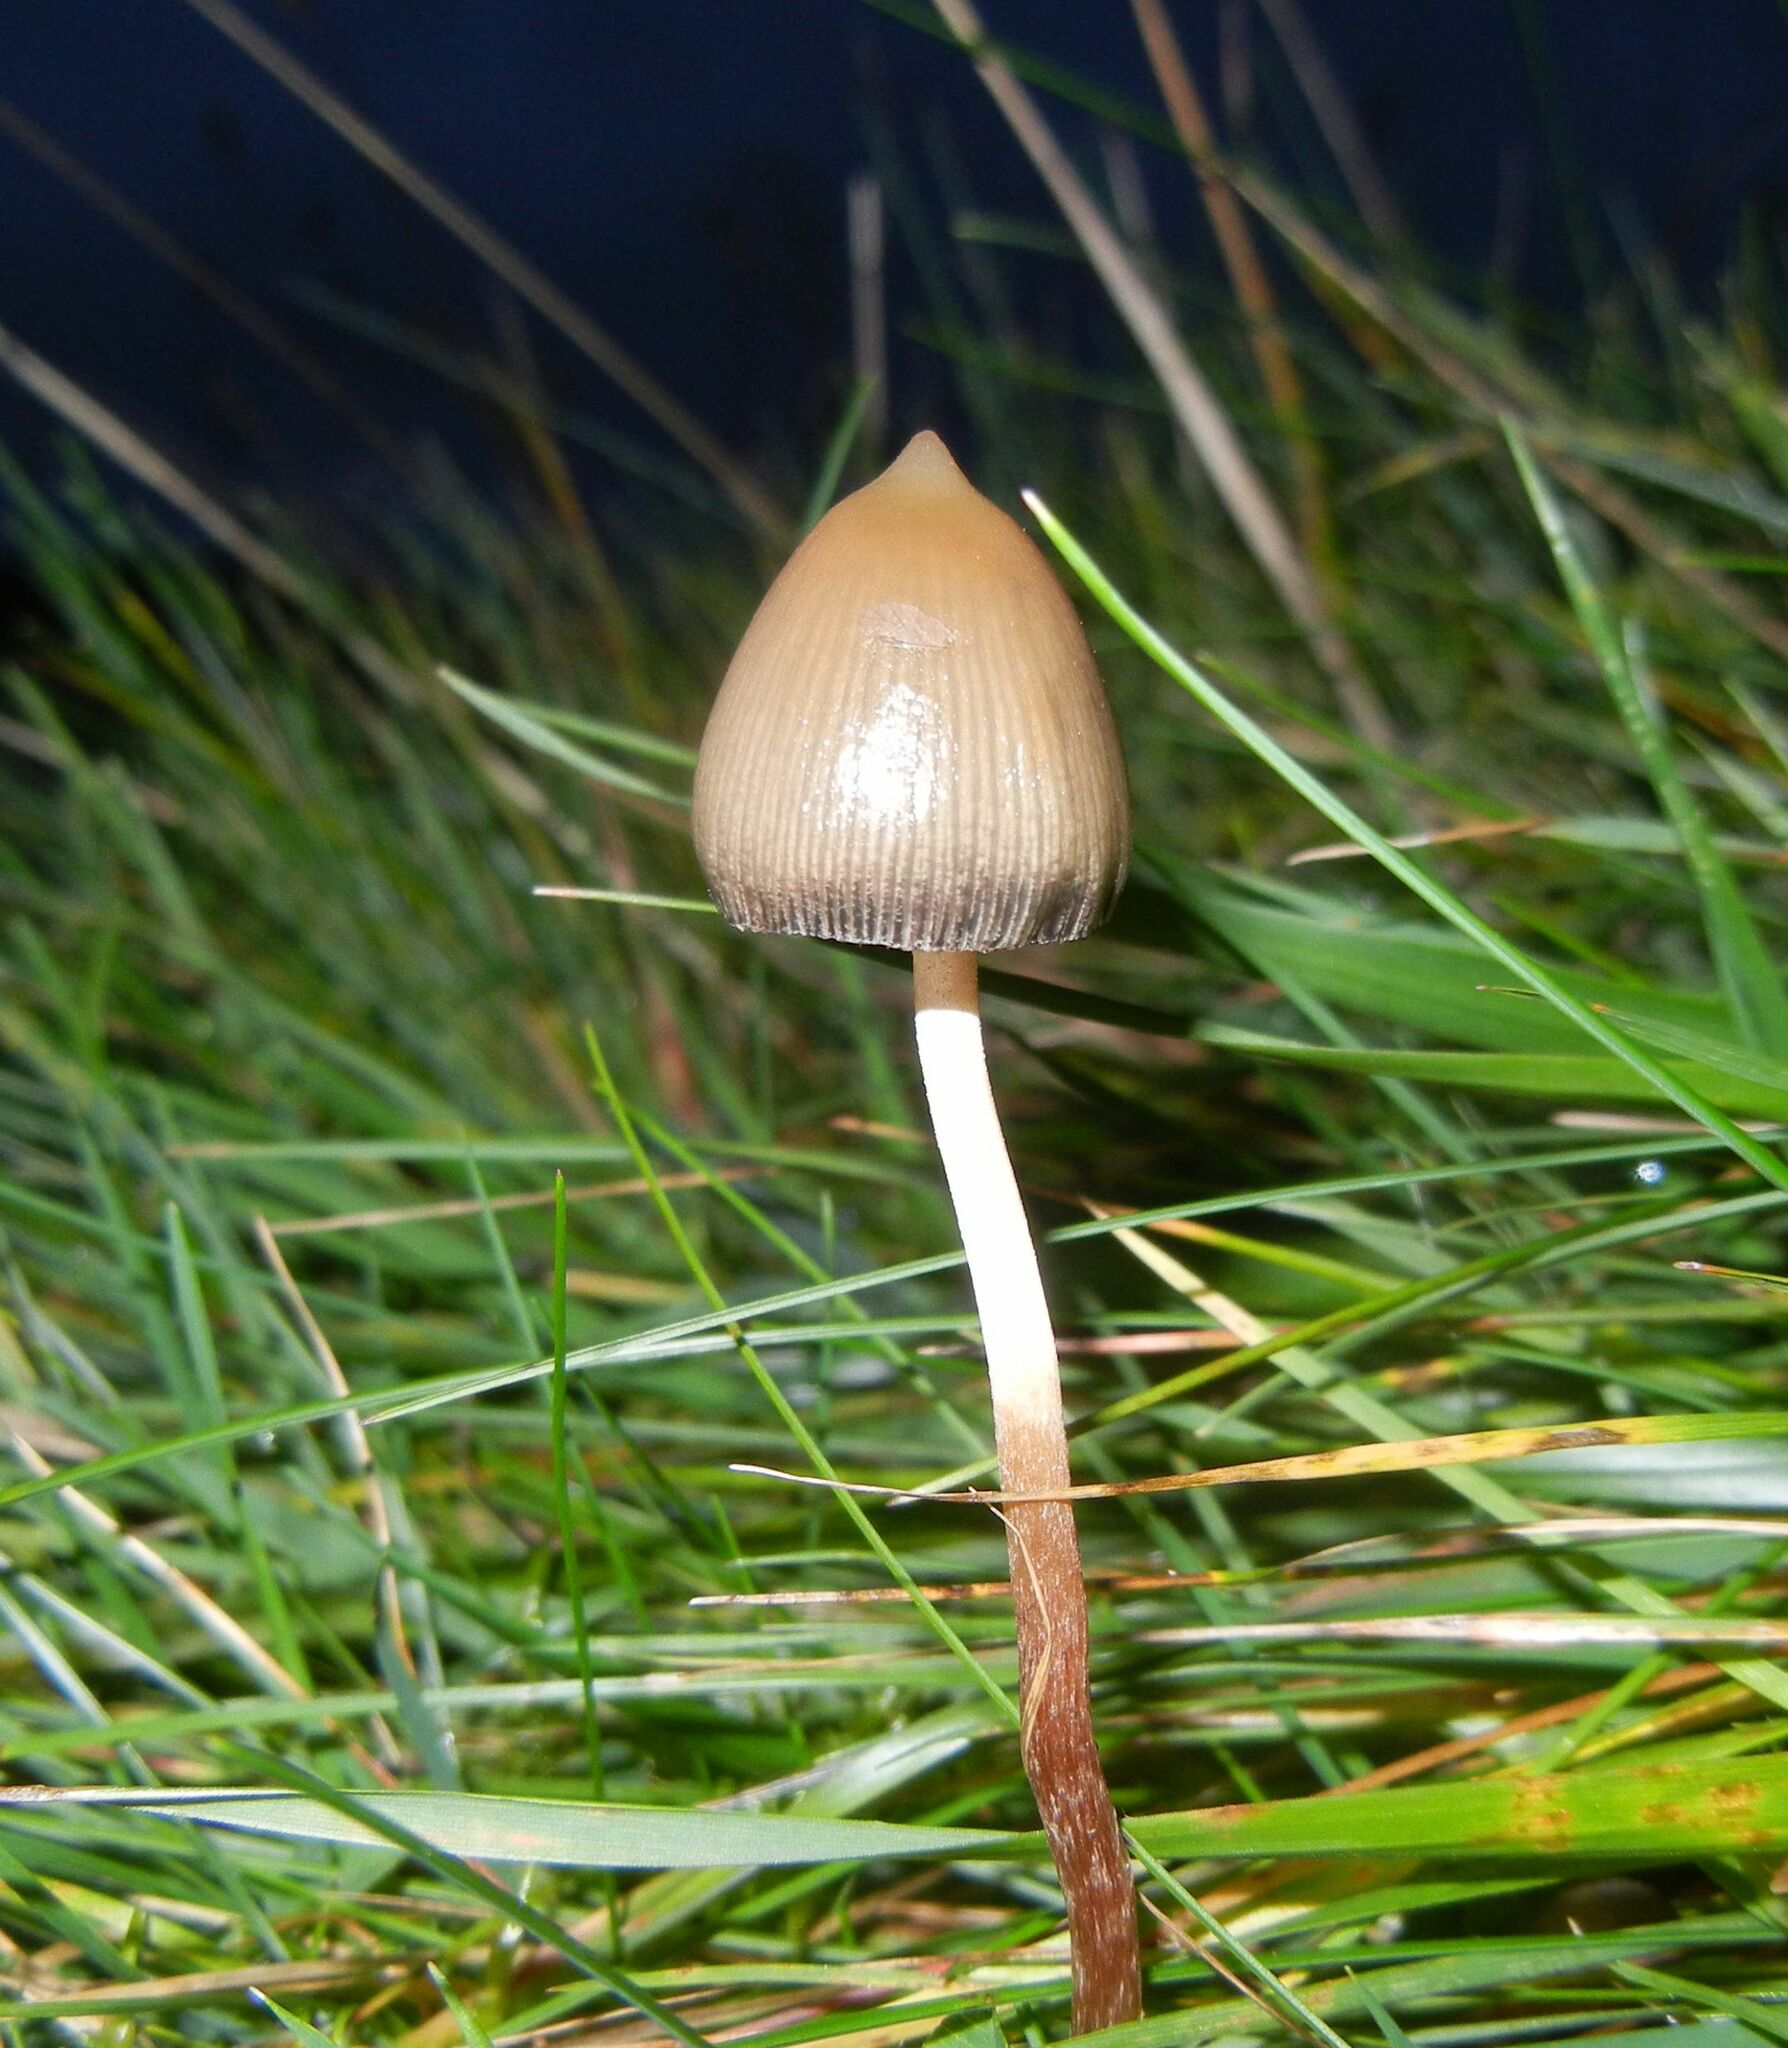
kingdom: Fungi
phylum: Basidiomycota
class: Agaricomycetes
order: Agaricales
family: Hymenogastraceae
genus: Psilocybe
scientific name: Psilocybe semilanceata
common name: Liberty cap
